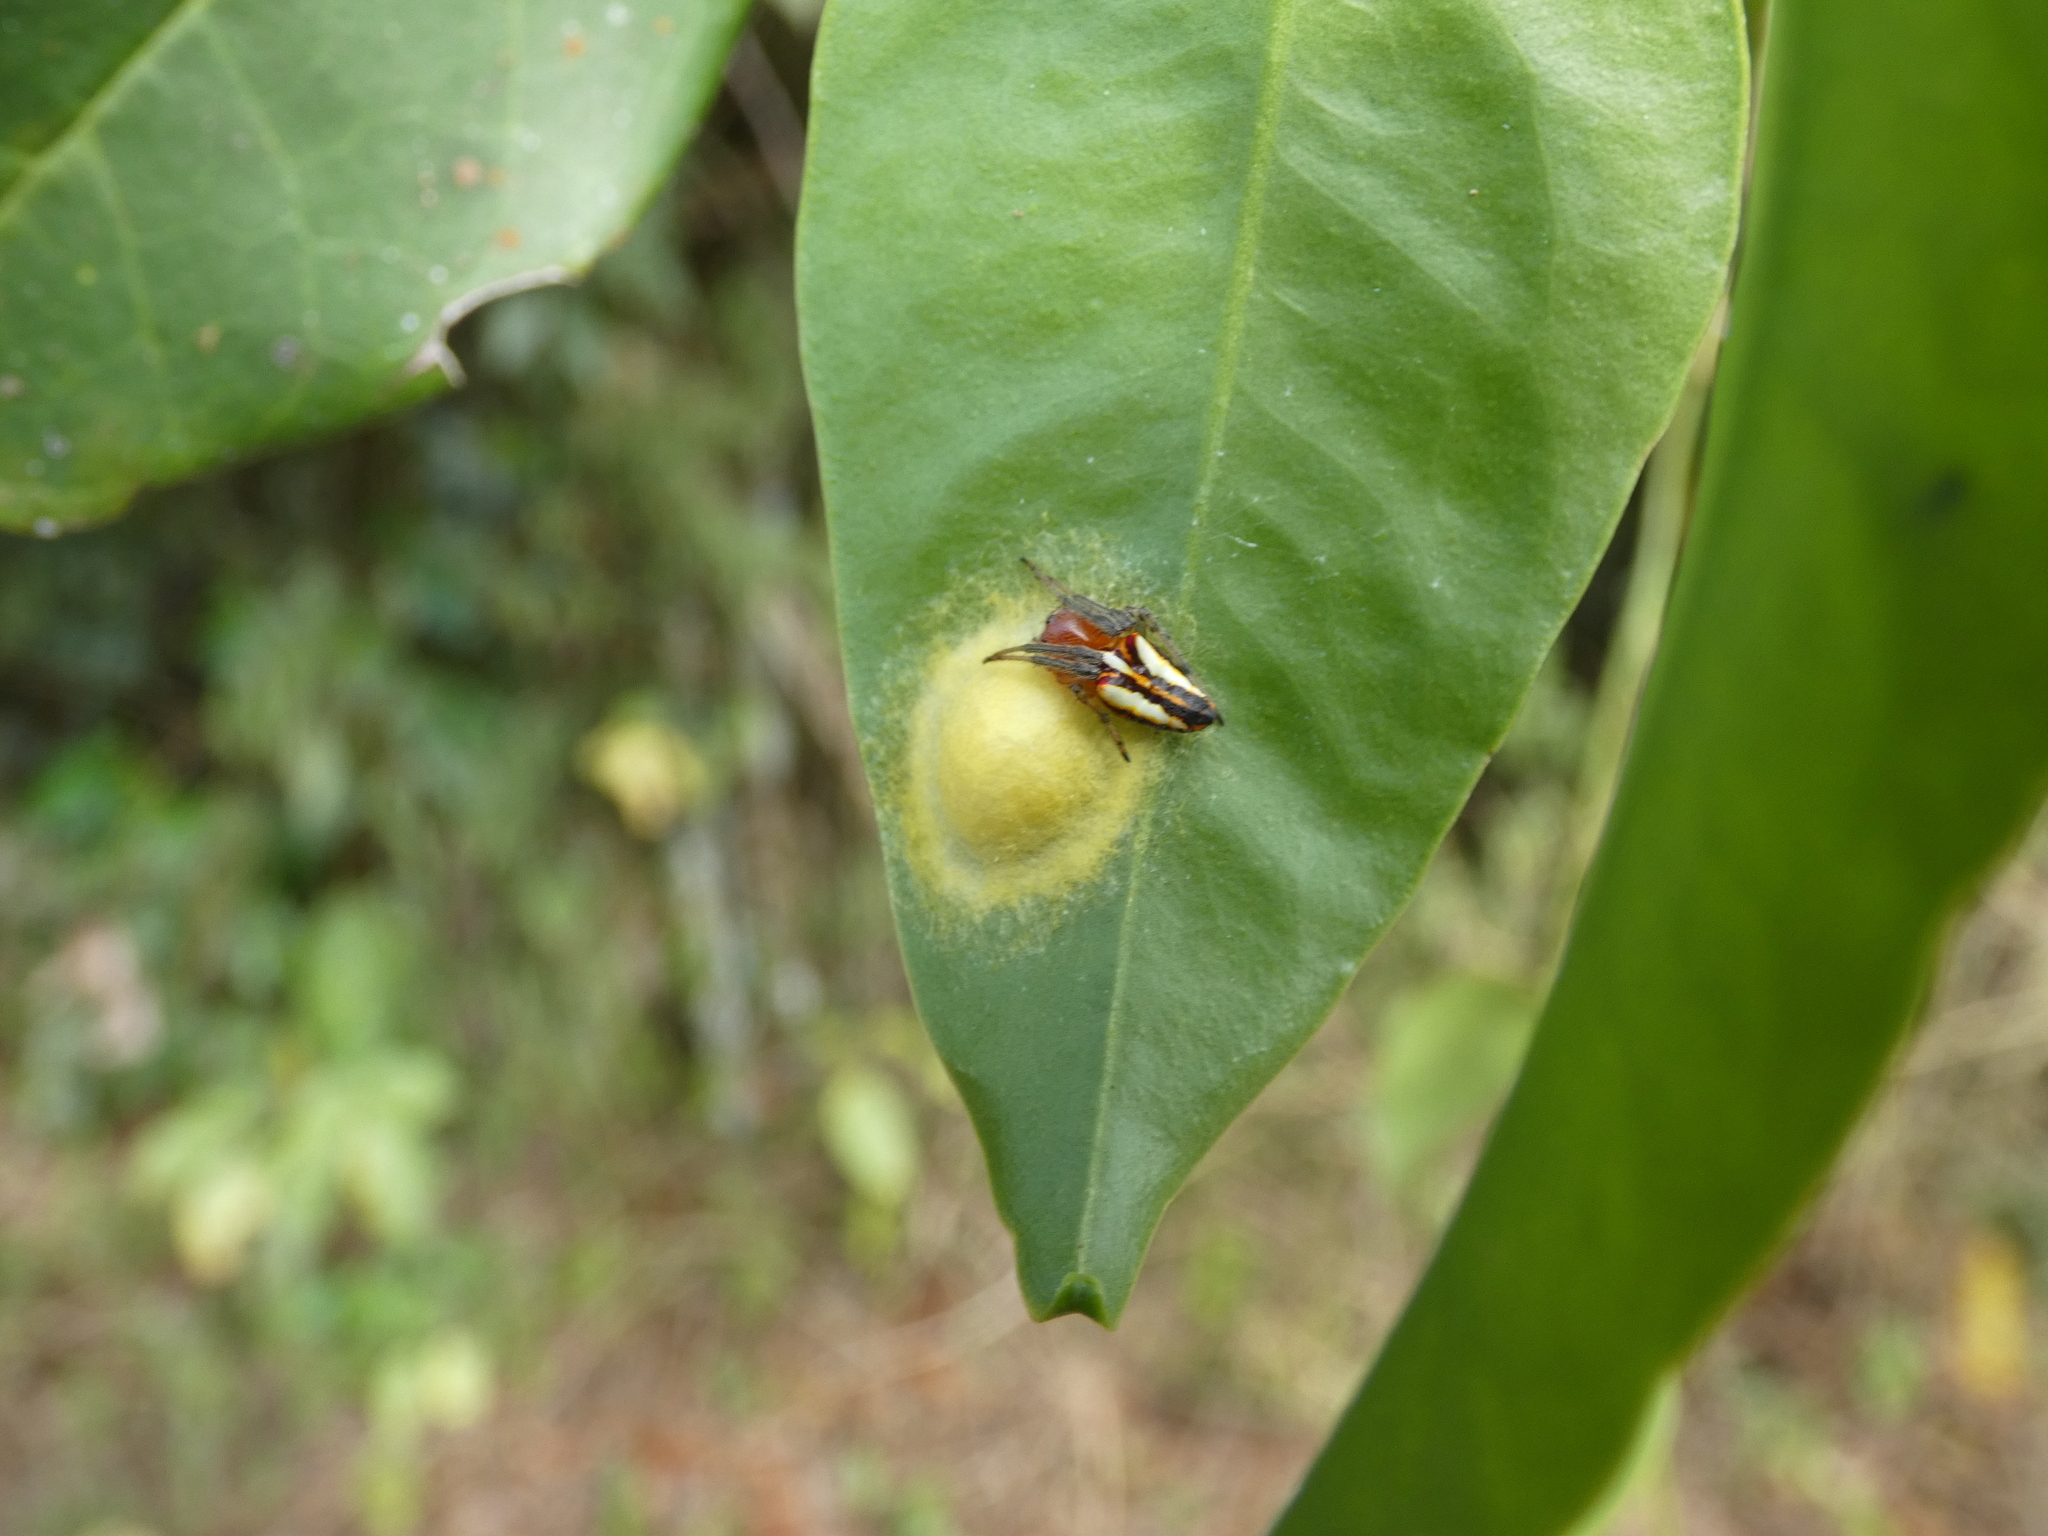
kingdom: Animalia
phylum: Arthropoda
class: Arachnida
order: Araneae
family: Araneidae
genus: Alpaida
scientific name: Alpaida bicornuta
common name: Orb weavers
